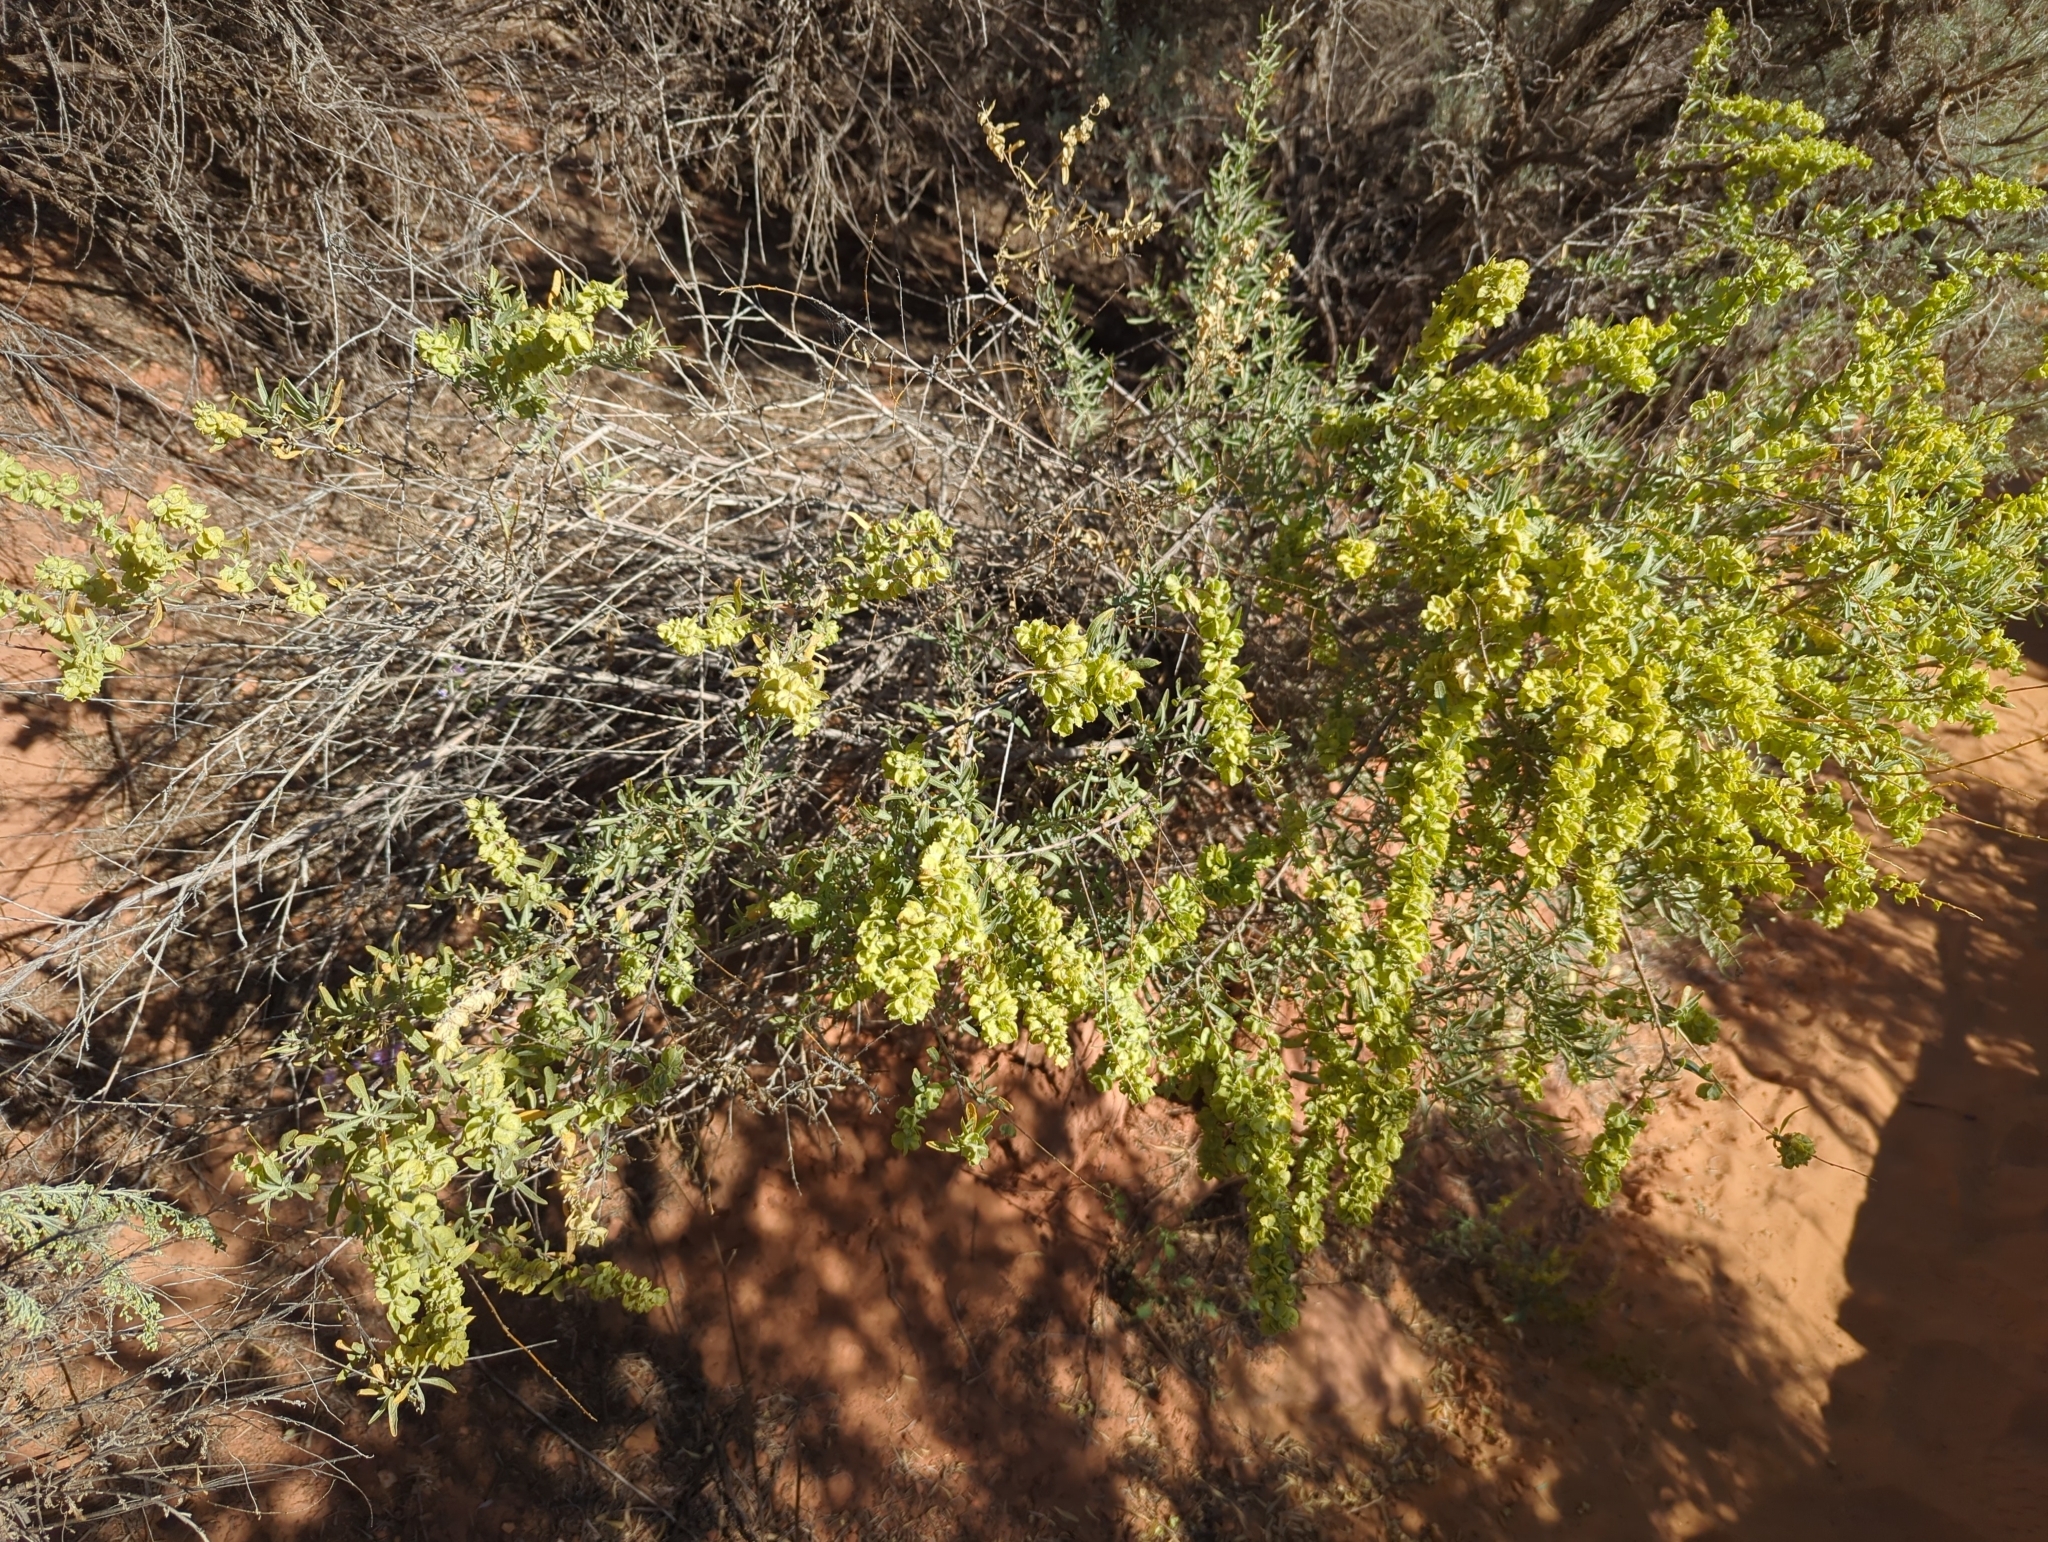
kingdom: Plantae
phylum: Tracheophyta
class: Magnoliopsida
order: Caryophyllales
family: Amaranthaceae
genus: Atriplex
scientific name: Atriplex canescens
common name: Four-wing saltbush
